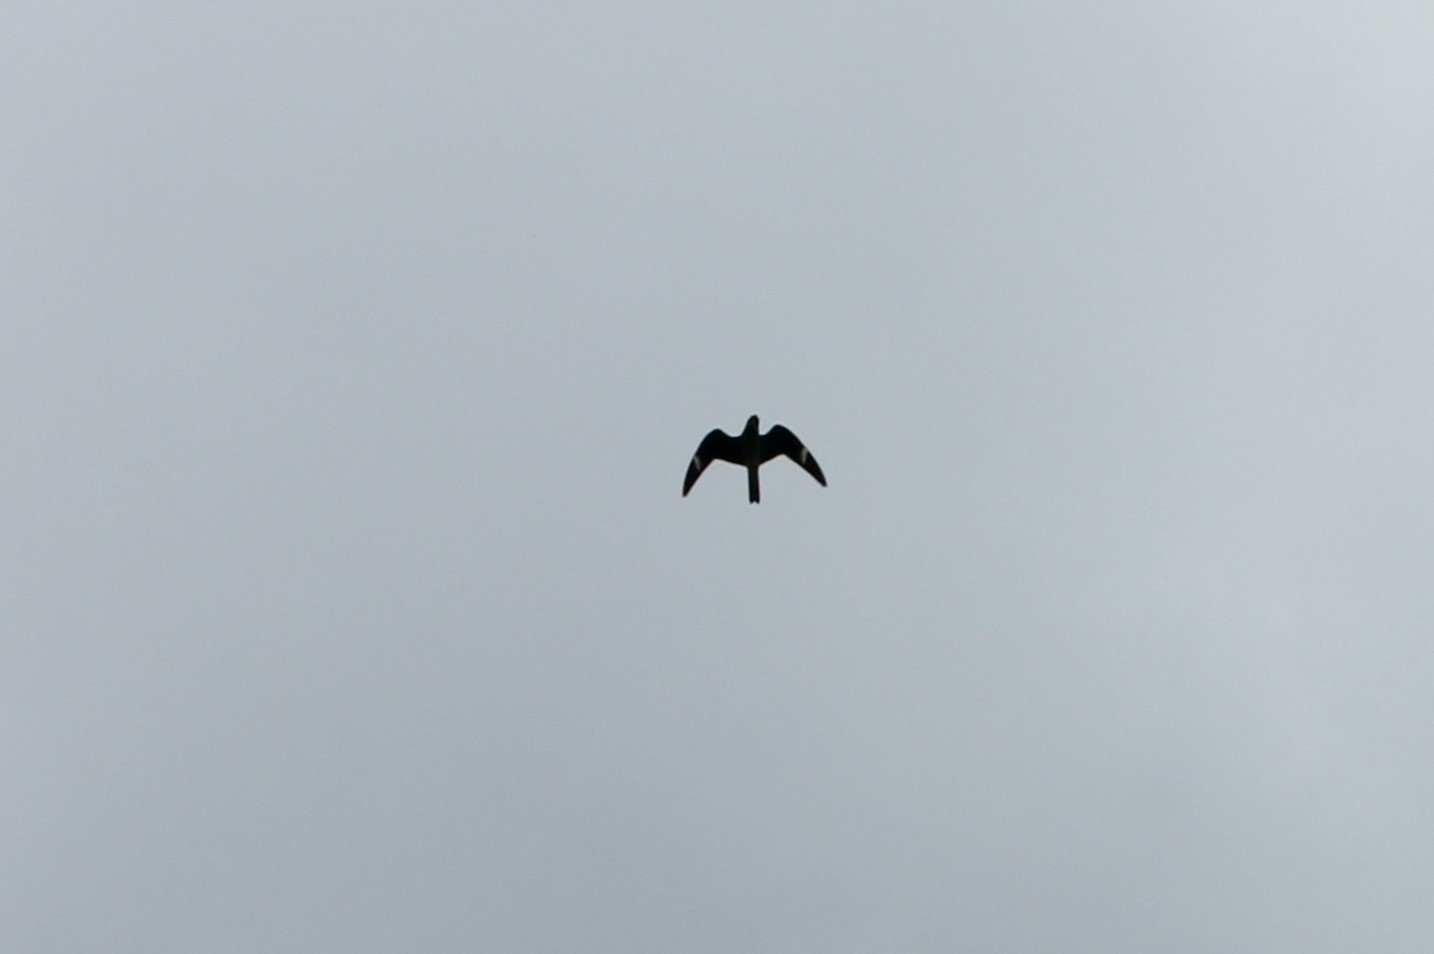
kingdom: Animalia
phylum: Chordata
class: Aves
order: Caprimulgiformes
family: Caprimulgidae
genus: Chordeiles
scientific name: Chordeiles minor
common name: Common nighthawk
